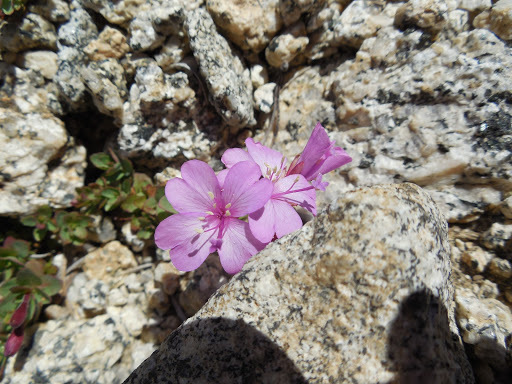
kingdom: Plantae
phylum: Tracheophyta
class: Magnoliopsida
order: Myrtales
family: Onagraceae
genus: Epilobium
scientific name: Epilobium obcordatum
